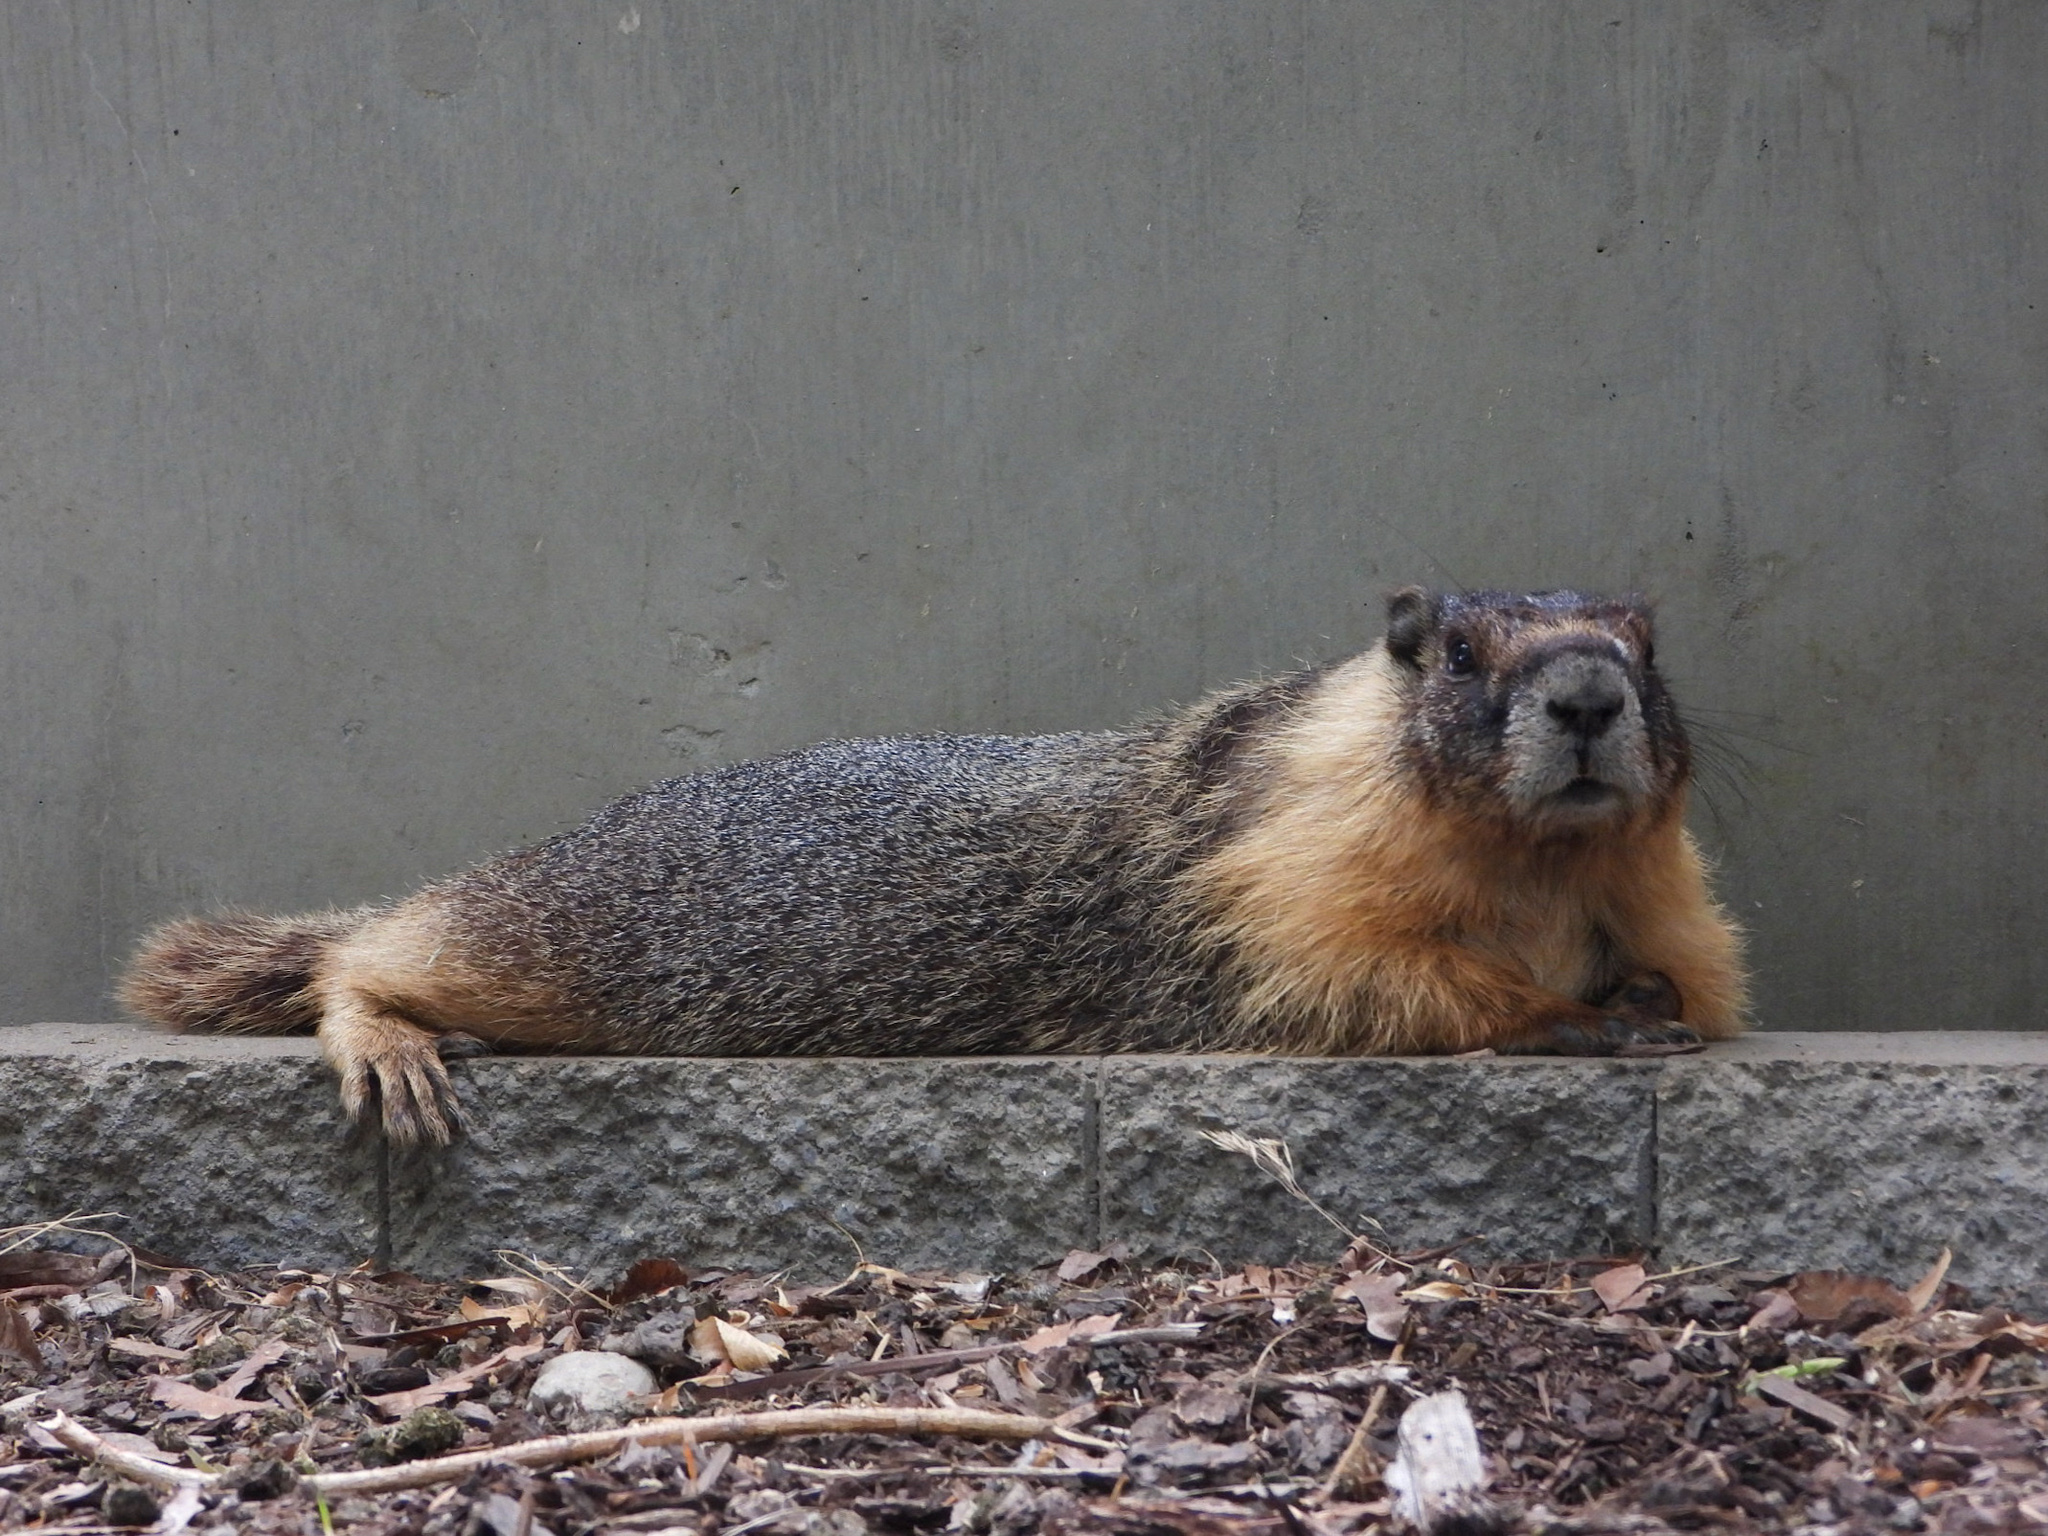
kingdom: Animalia
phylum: Chordata
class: Mammalia
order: Rodentia
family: Sciuridae
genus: Marmota
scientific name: Marmota flaviventris
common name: Yellow-bellied marmot
